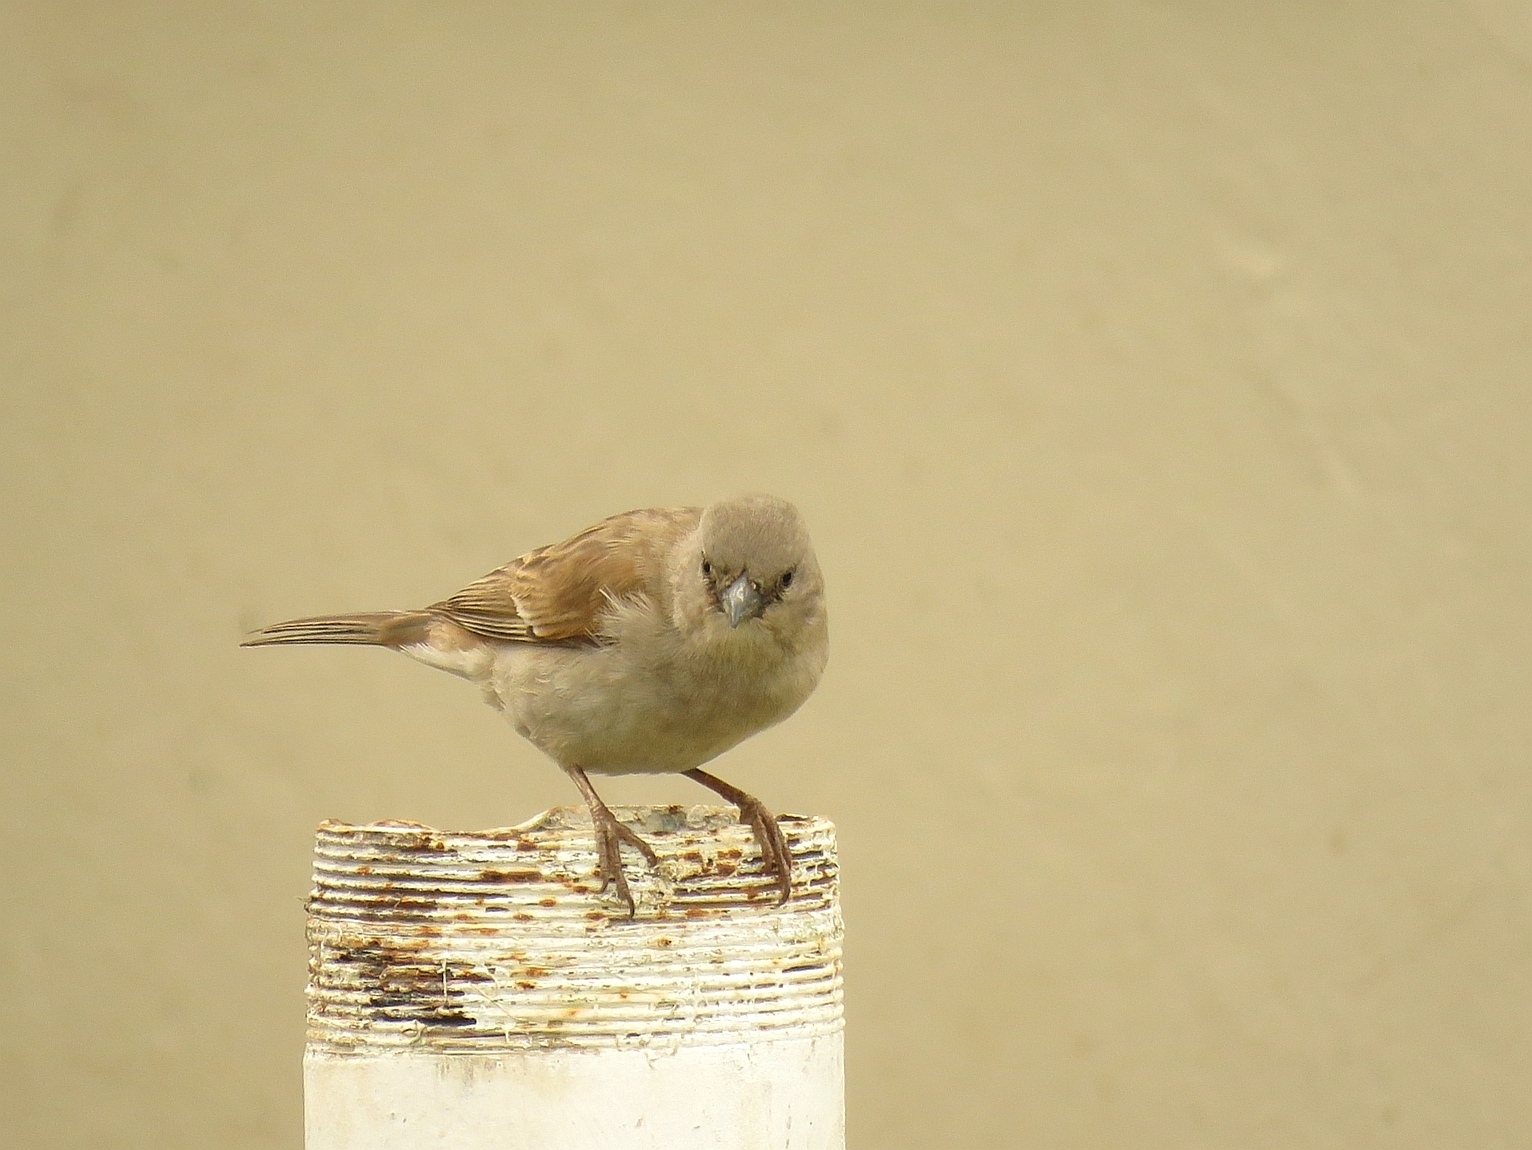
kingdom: Animalia
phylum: Chordata
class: Aves
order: Passeriformes
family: Passeridae
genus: Passer
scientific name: Passer diffusus
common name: Southern grey-headed sparrow
